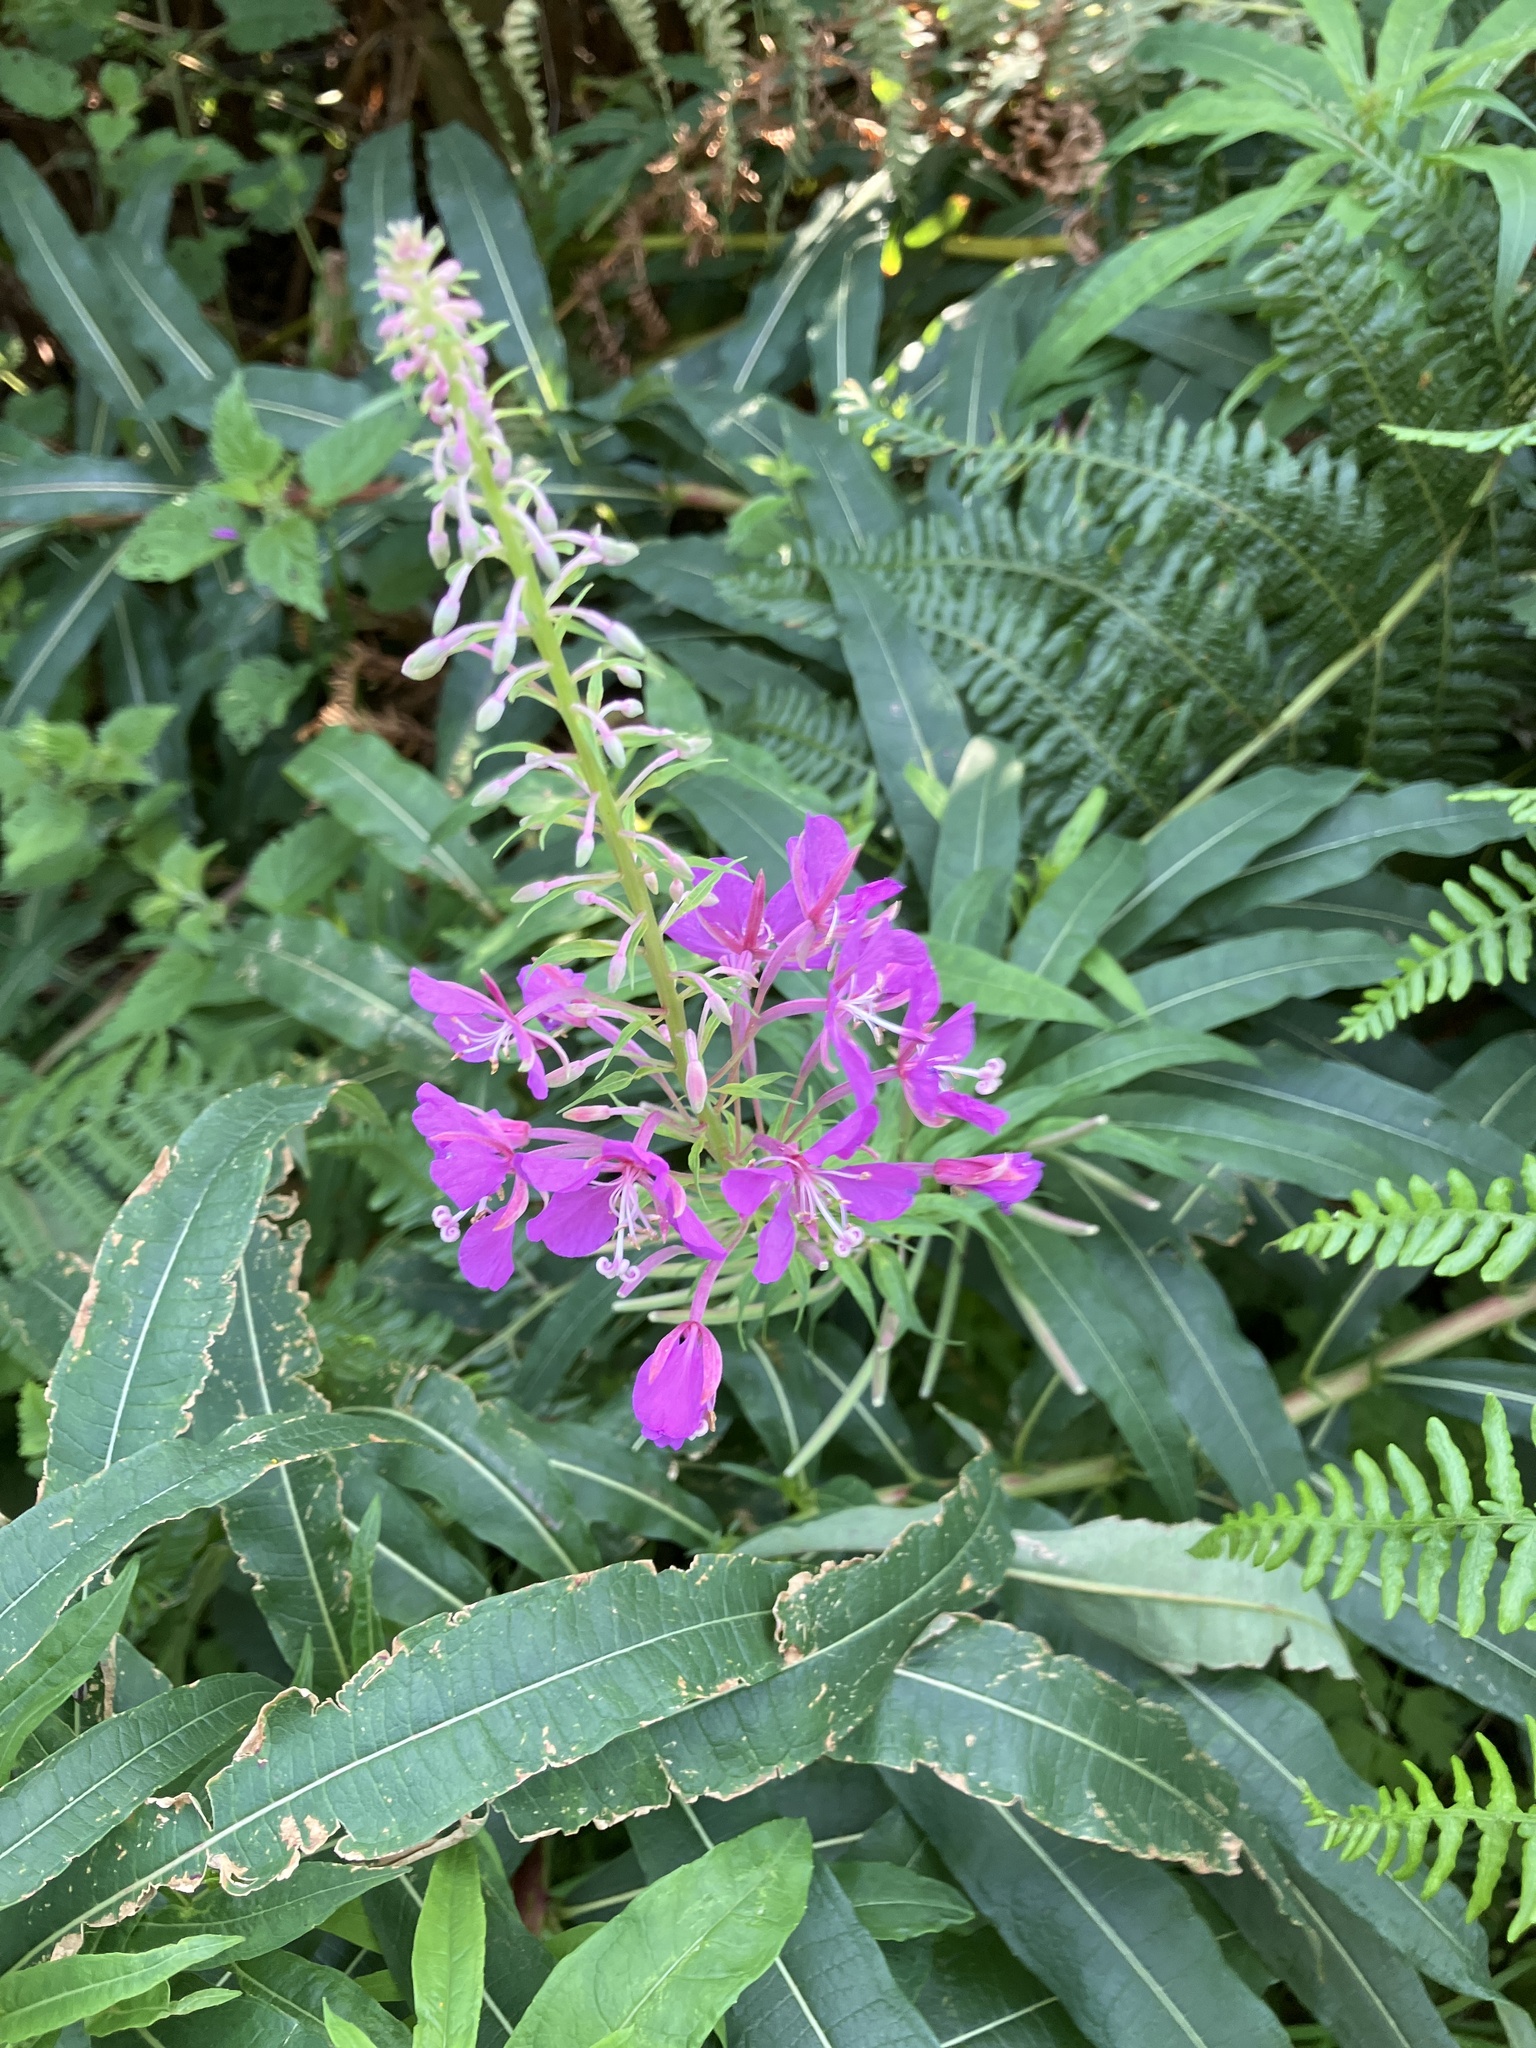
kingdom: Plantae
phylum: Tracheophyta
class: Magnoliopsida
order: Myrtales
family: Onagraceae
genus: Chamaenerion
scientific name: Chamaenerion angustifolium
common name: Fireweed
